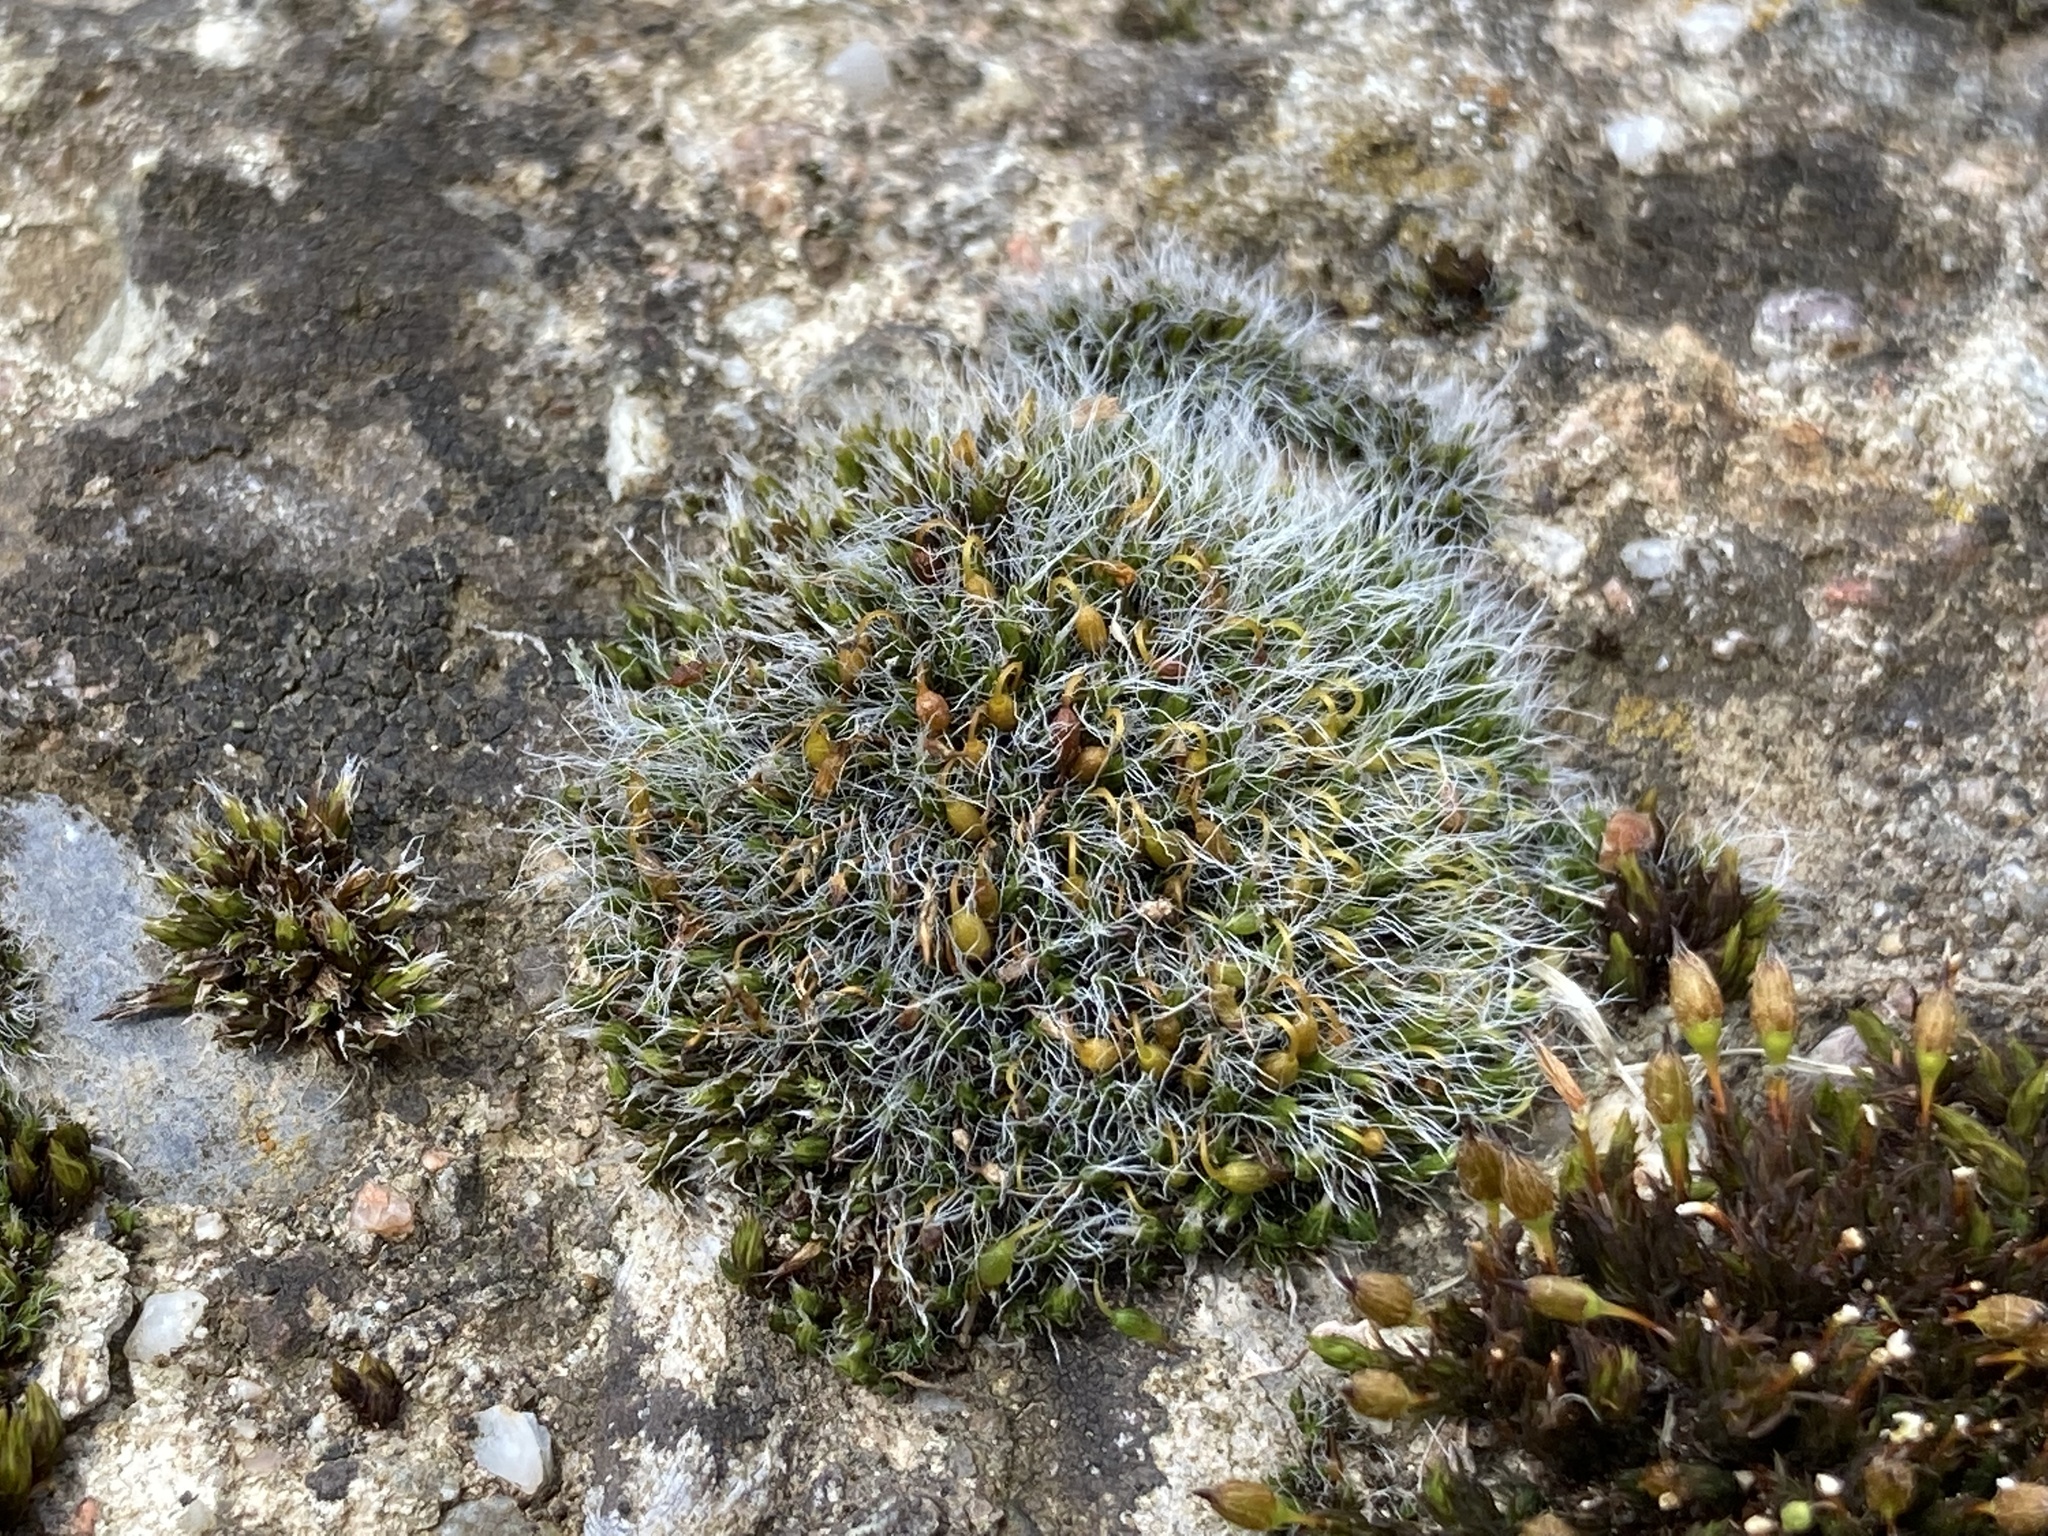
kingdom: Plantae
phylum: Bryophyta
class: Bryopsida
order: Grimmiales
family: Grimmiaceae
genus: Grimmia
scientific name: Grimmia pulvinata
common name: Grey-cushioned grimmia
